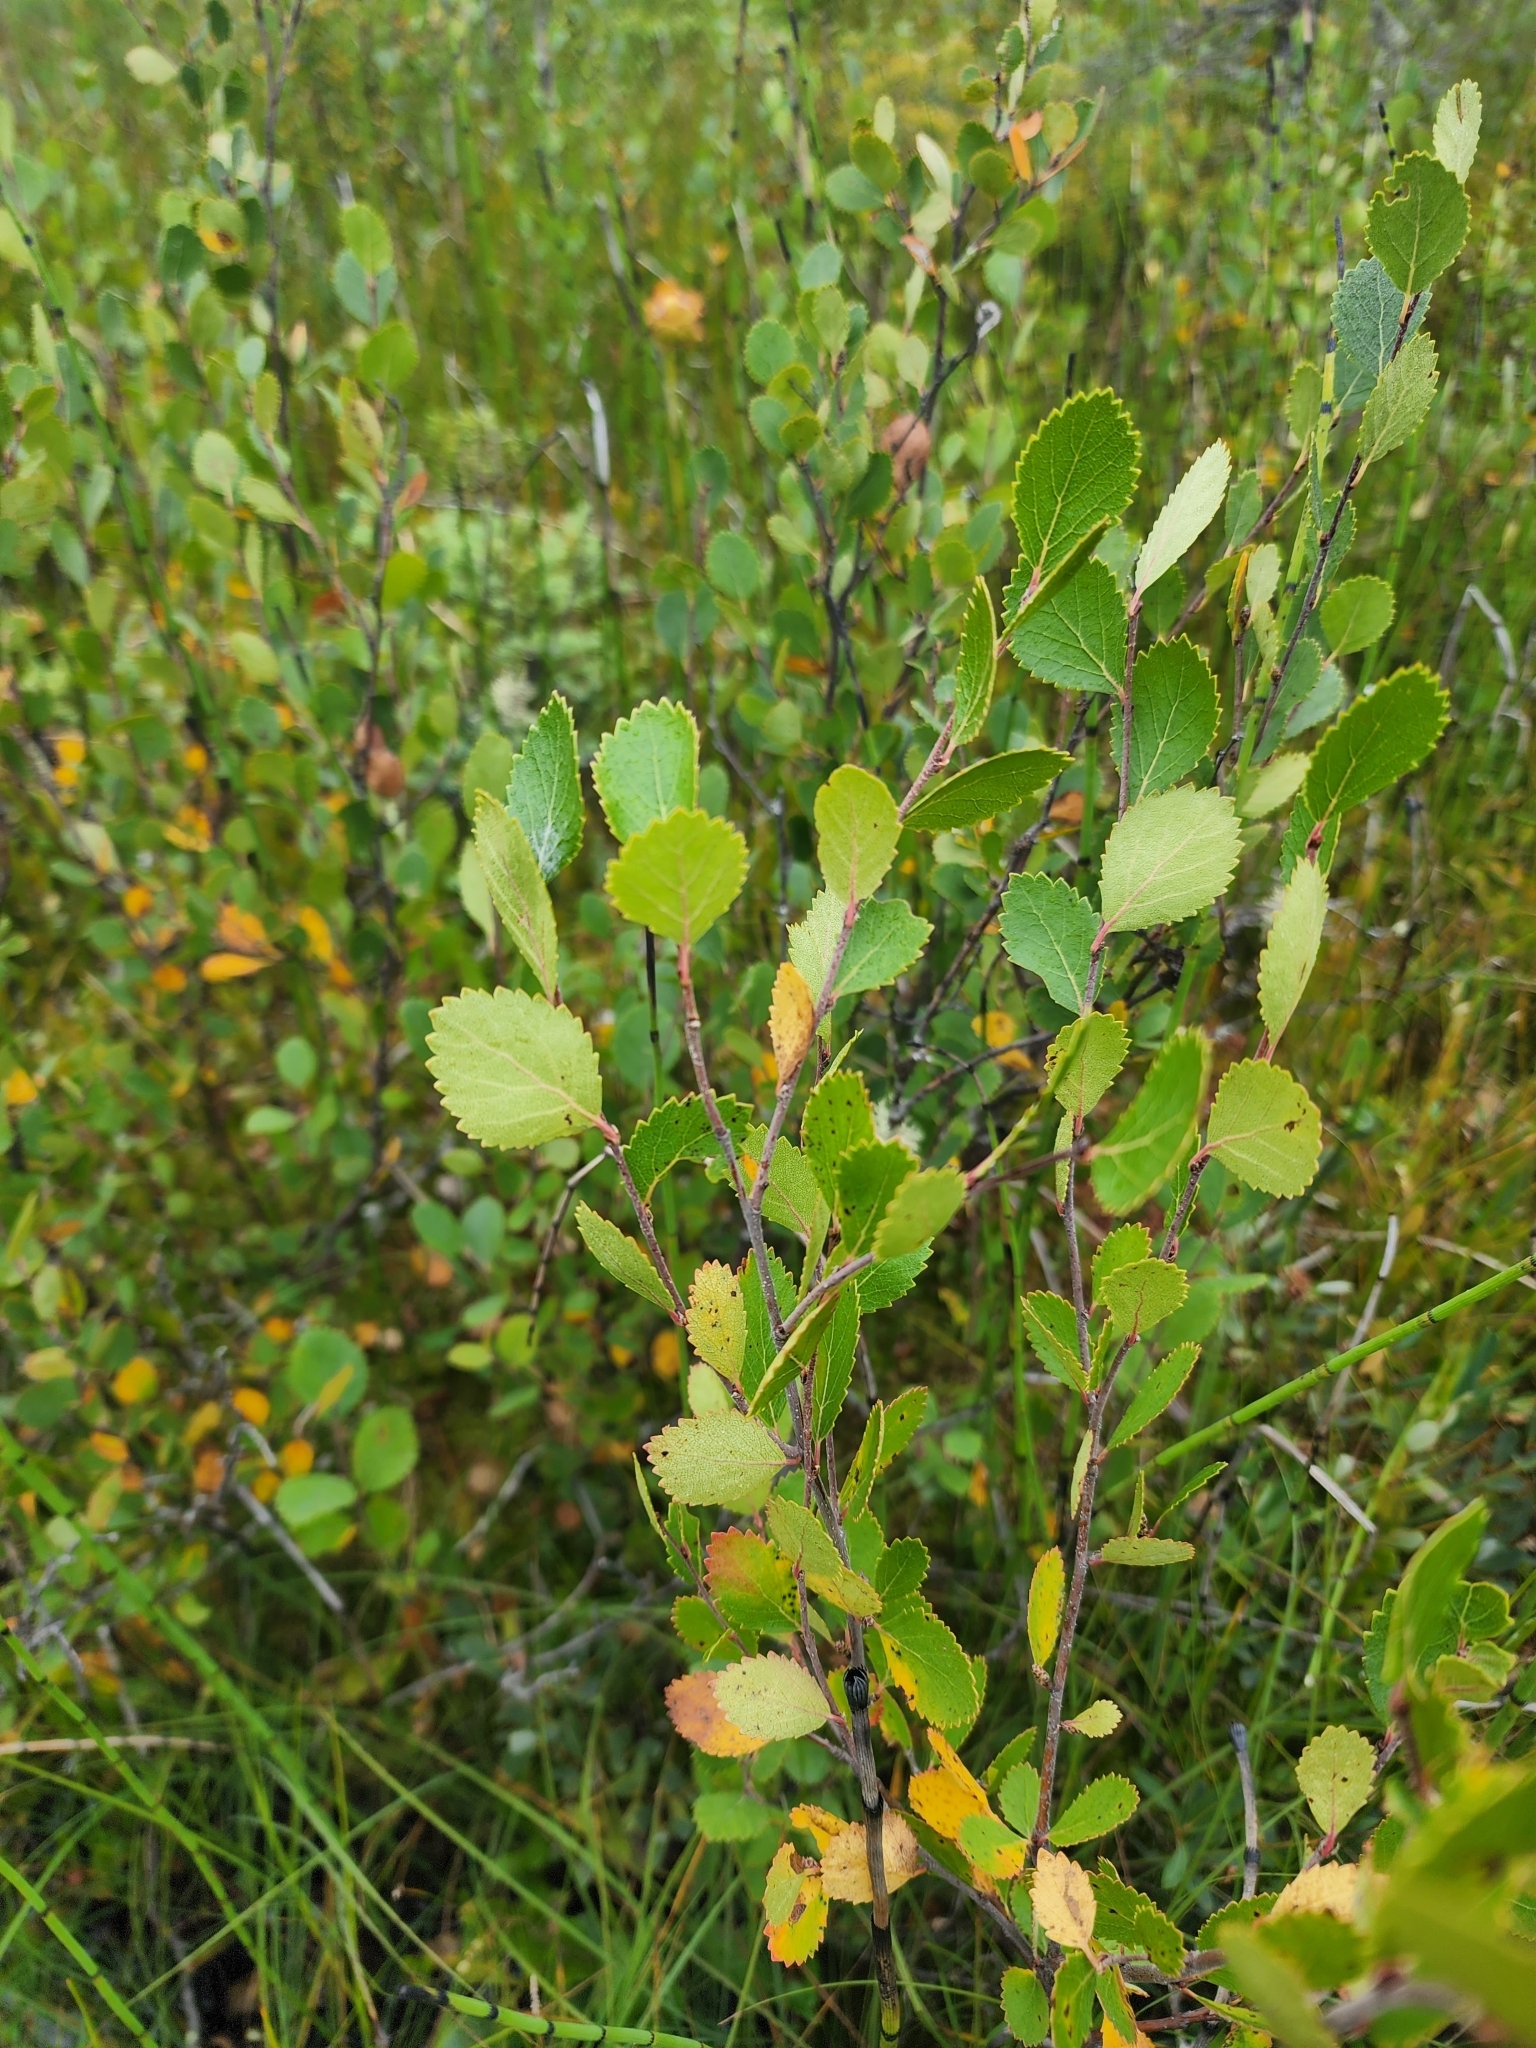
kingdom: Plantae
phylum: Tracheophyta
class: Magnoliopsida
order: Fagales
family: Betulaceae
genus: Betula
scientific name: Betula pumila
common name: Bog birch
